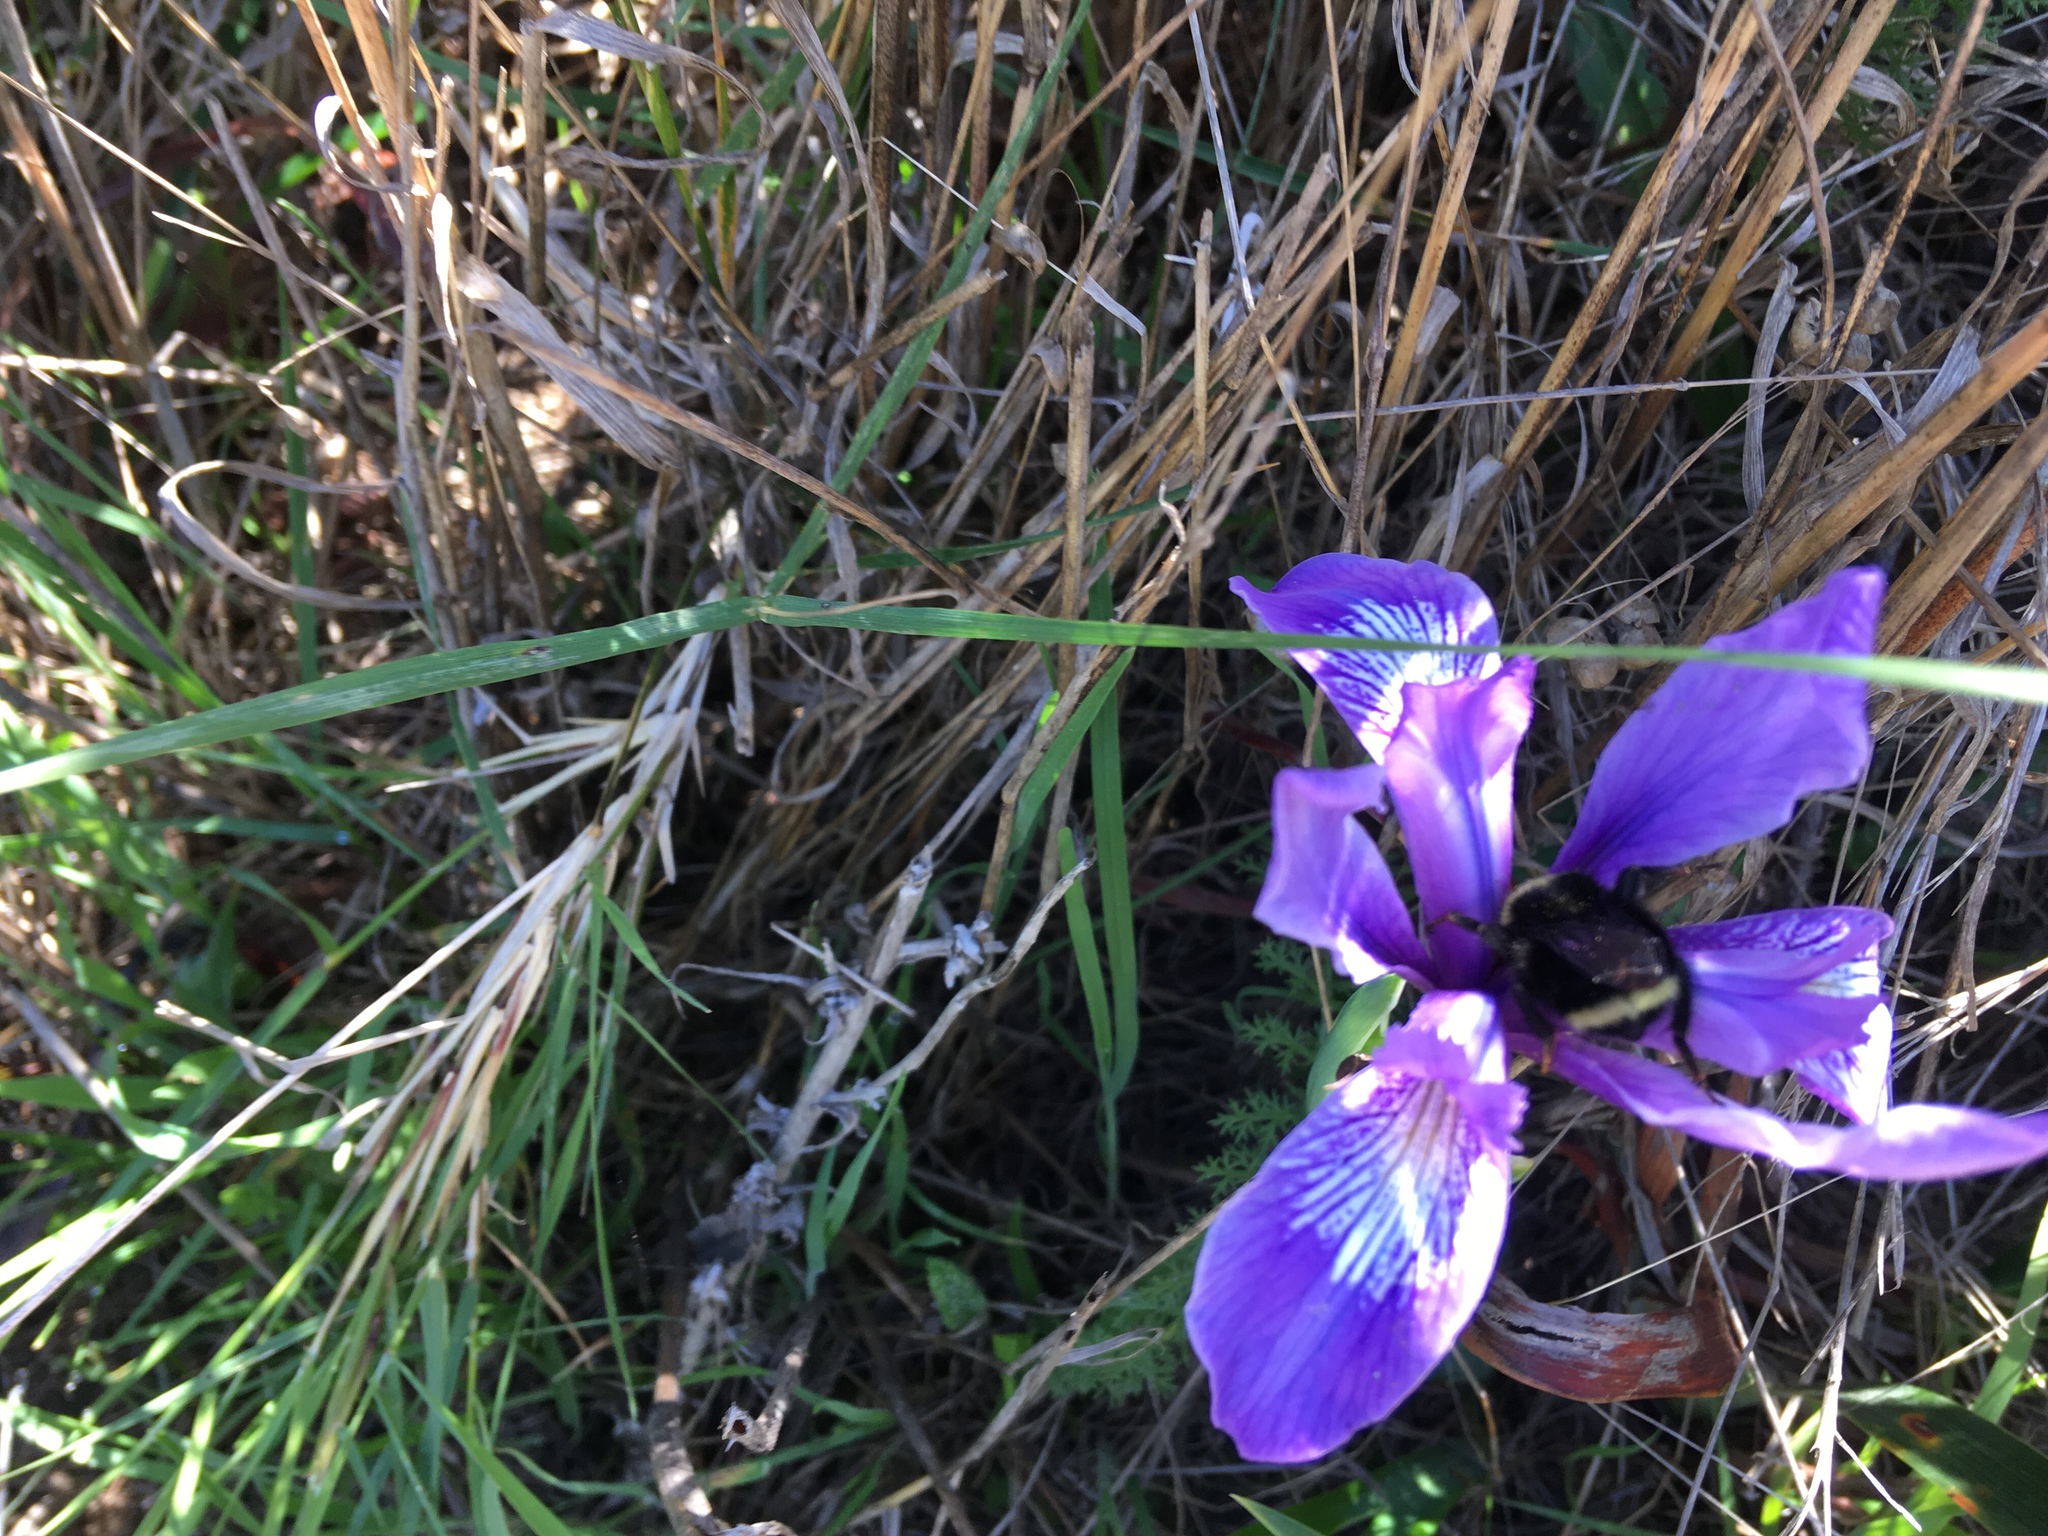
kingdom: Plantae
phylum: Tracheophyta
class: Liliopsida
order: Asparagales
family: Iridaceae
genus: Iris
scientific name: Iris douglasiana
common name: Marin iris
